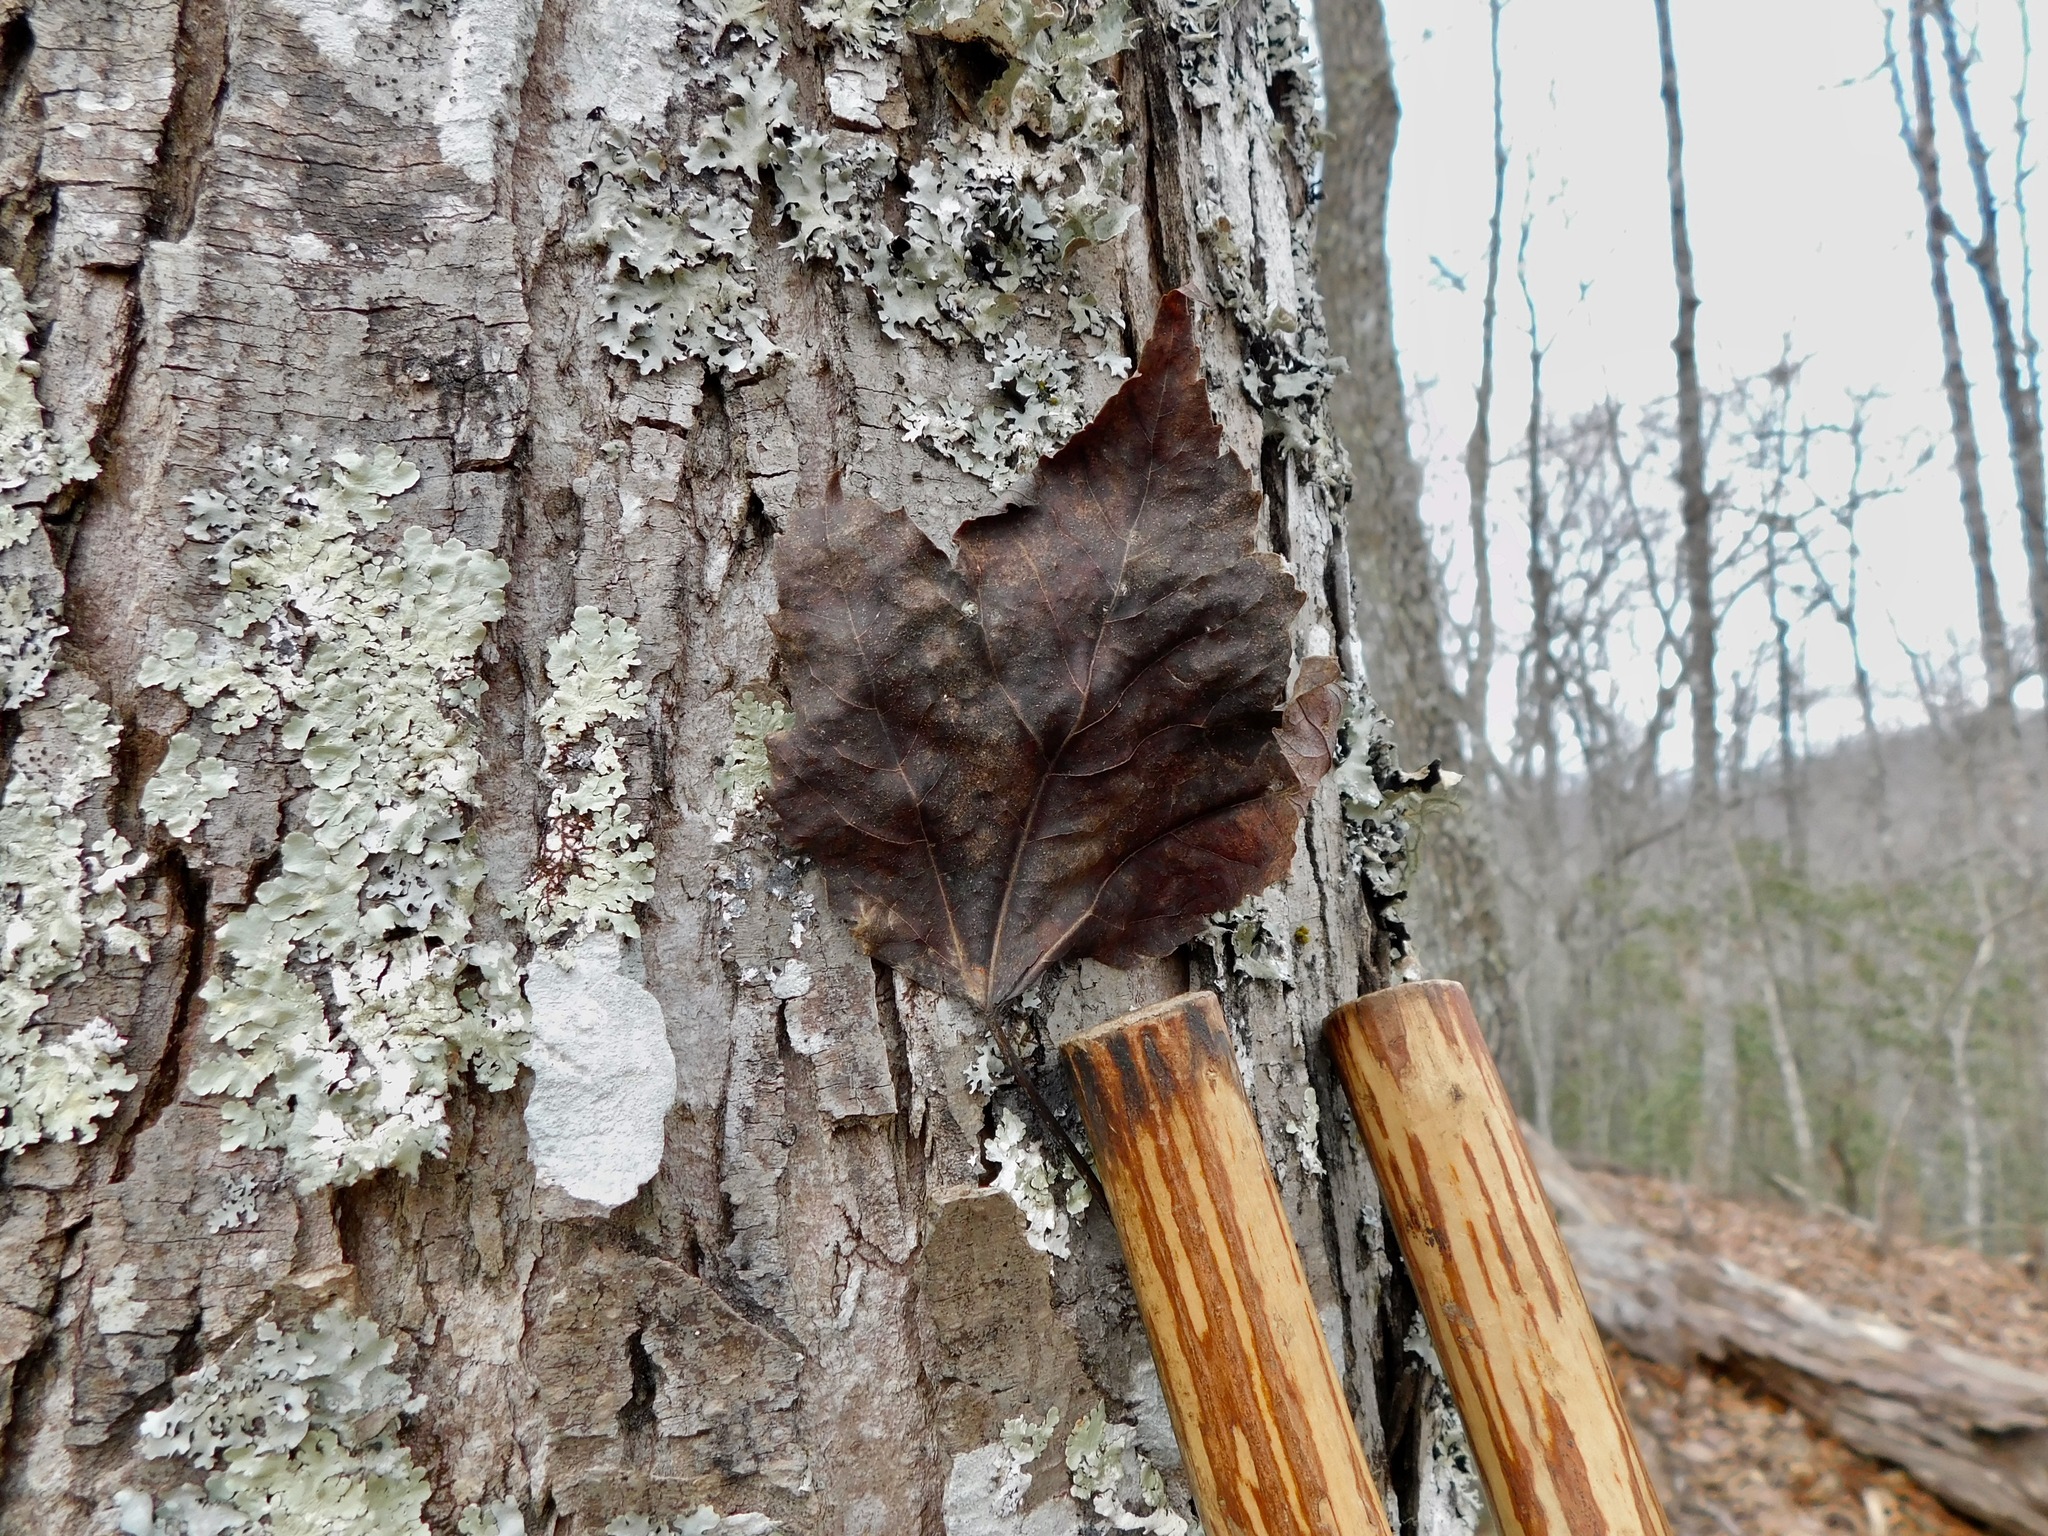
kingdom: Plantae
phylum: Tracheophyta
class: Magnoliopsida
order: Sapindales
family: Sapindaceae
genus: Acer
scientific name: Acer rubrum
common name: Red maple
